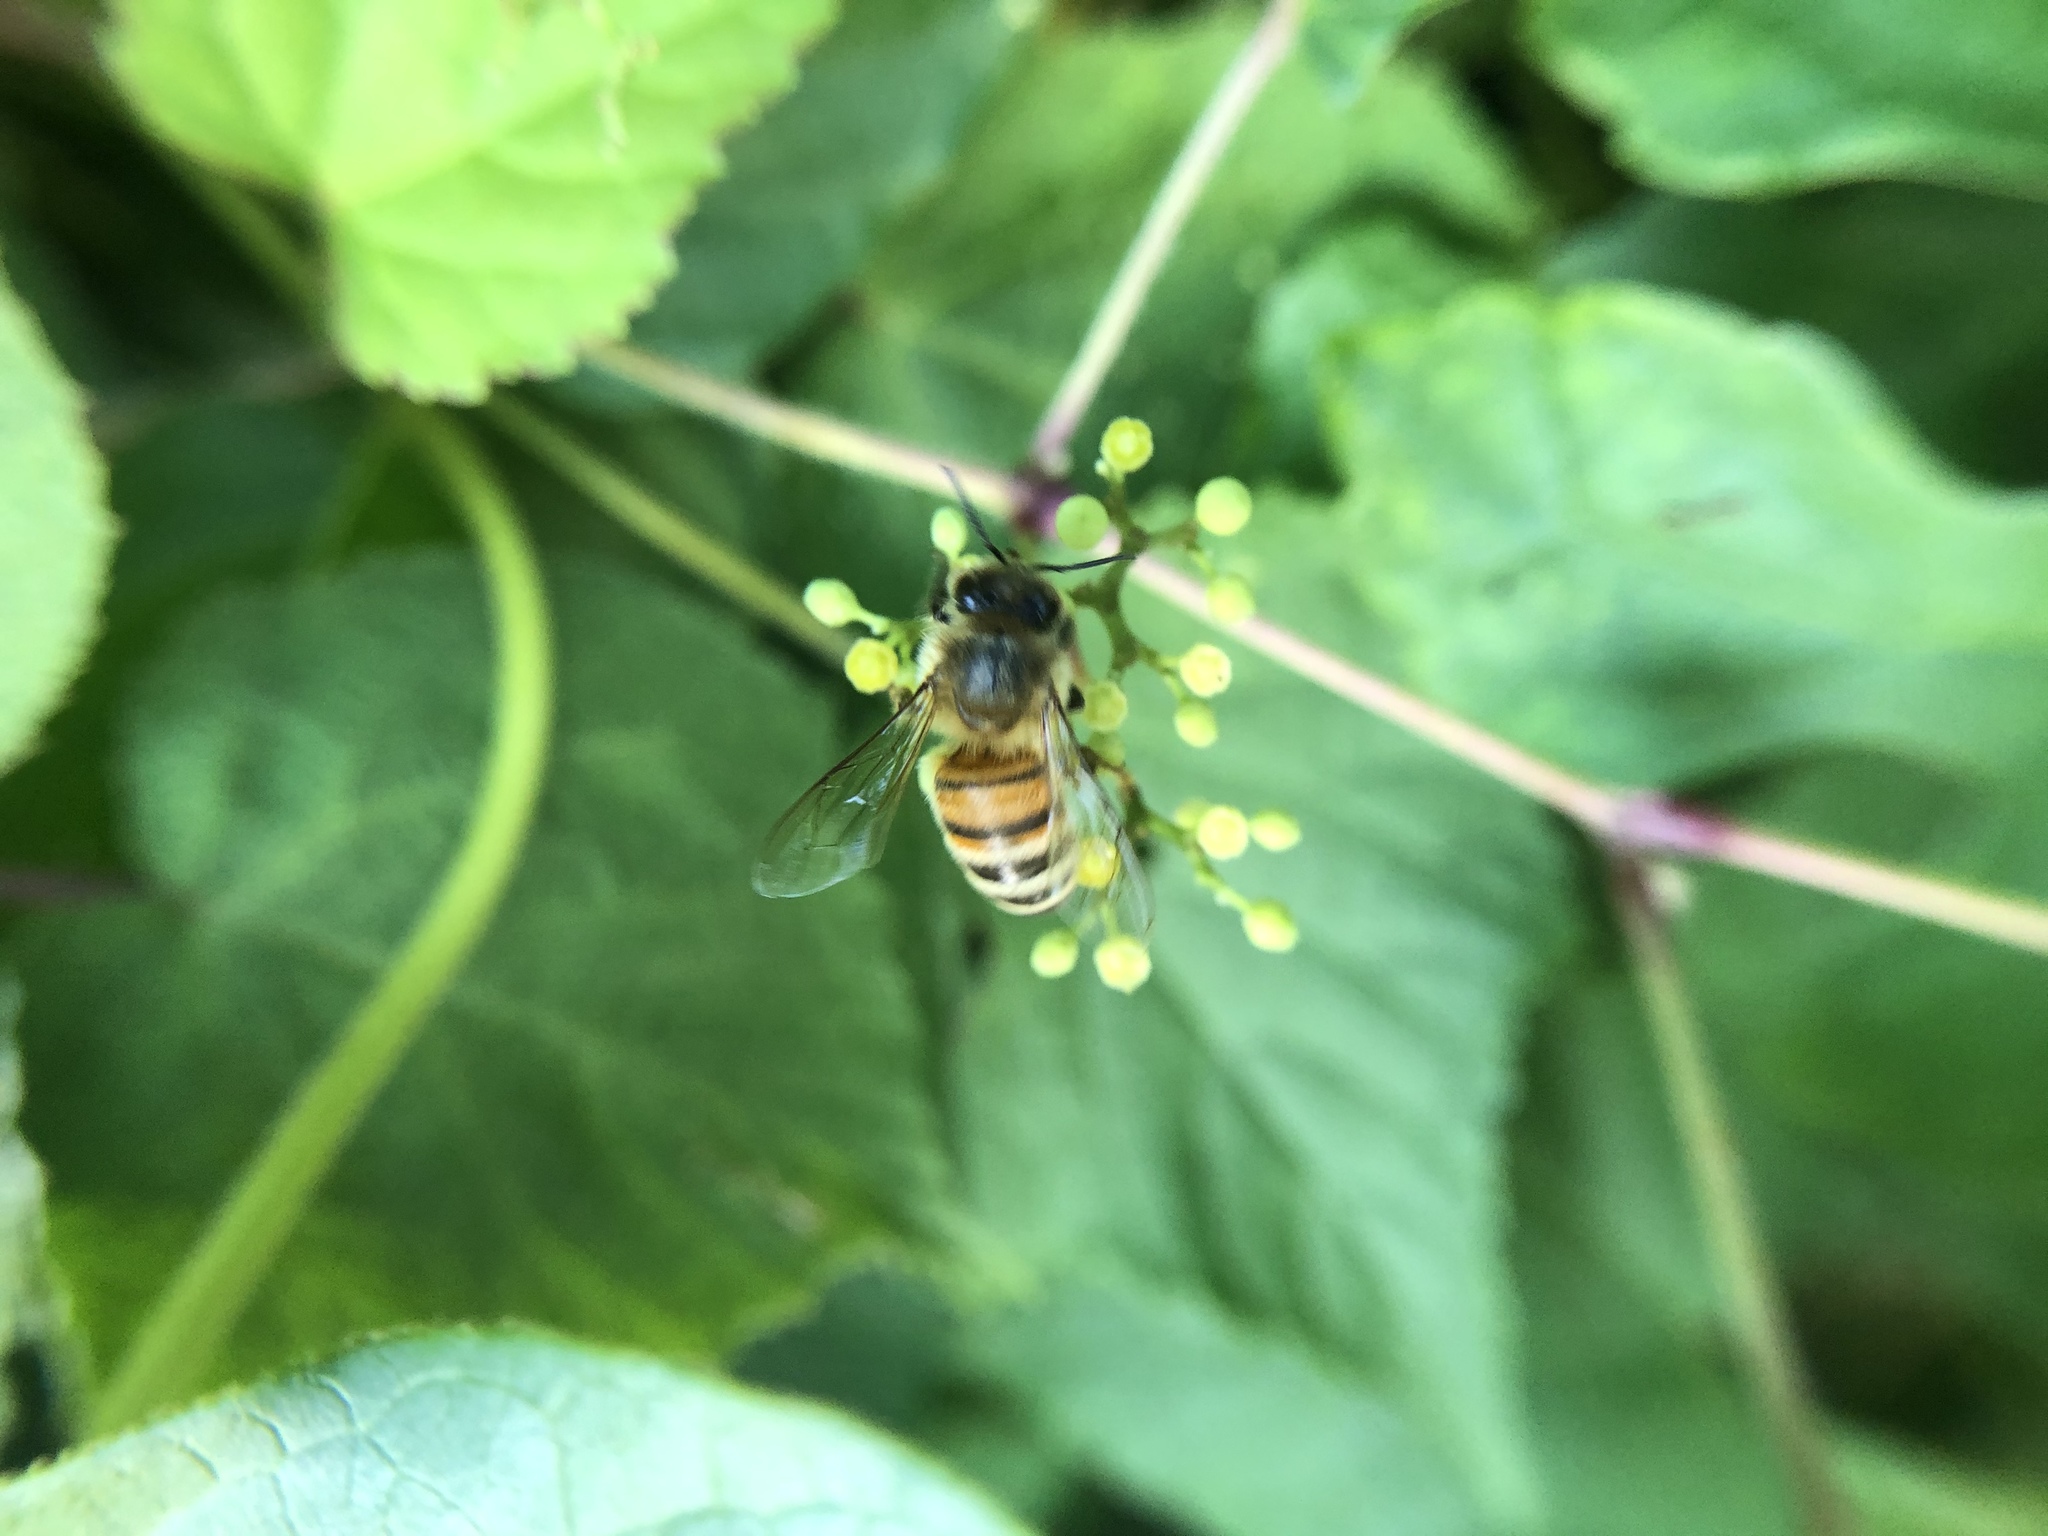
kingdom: Animalia
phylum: Arthropoda
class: Insecta
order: Hymenoptera
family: Apidae
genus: Apis
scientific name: Apis mellifera
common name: Honey bee
